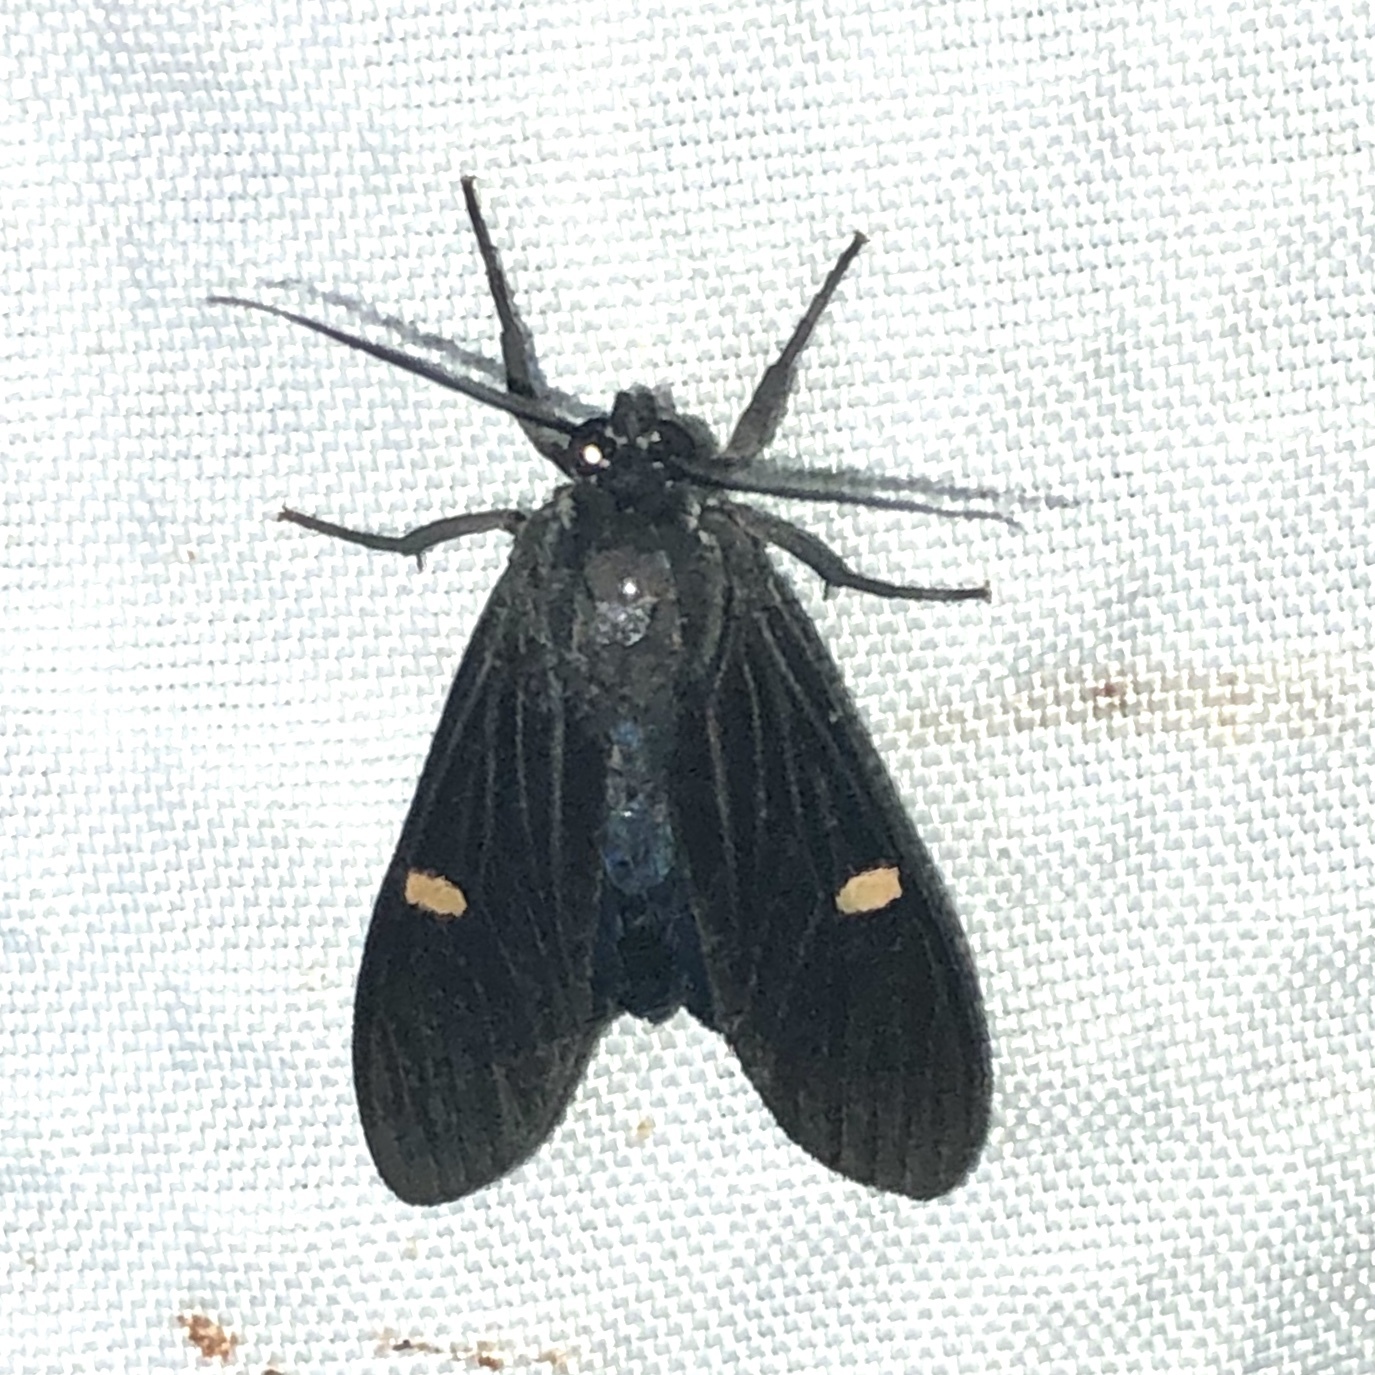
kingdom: Animalia
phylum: Arthropoda
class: Insecta
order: Lepidoptera
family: Erebidae
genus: Aclytia
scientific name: Aclytia punctata
